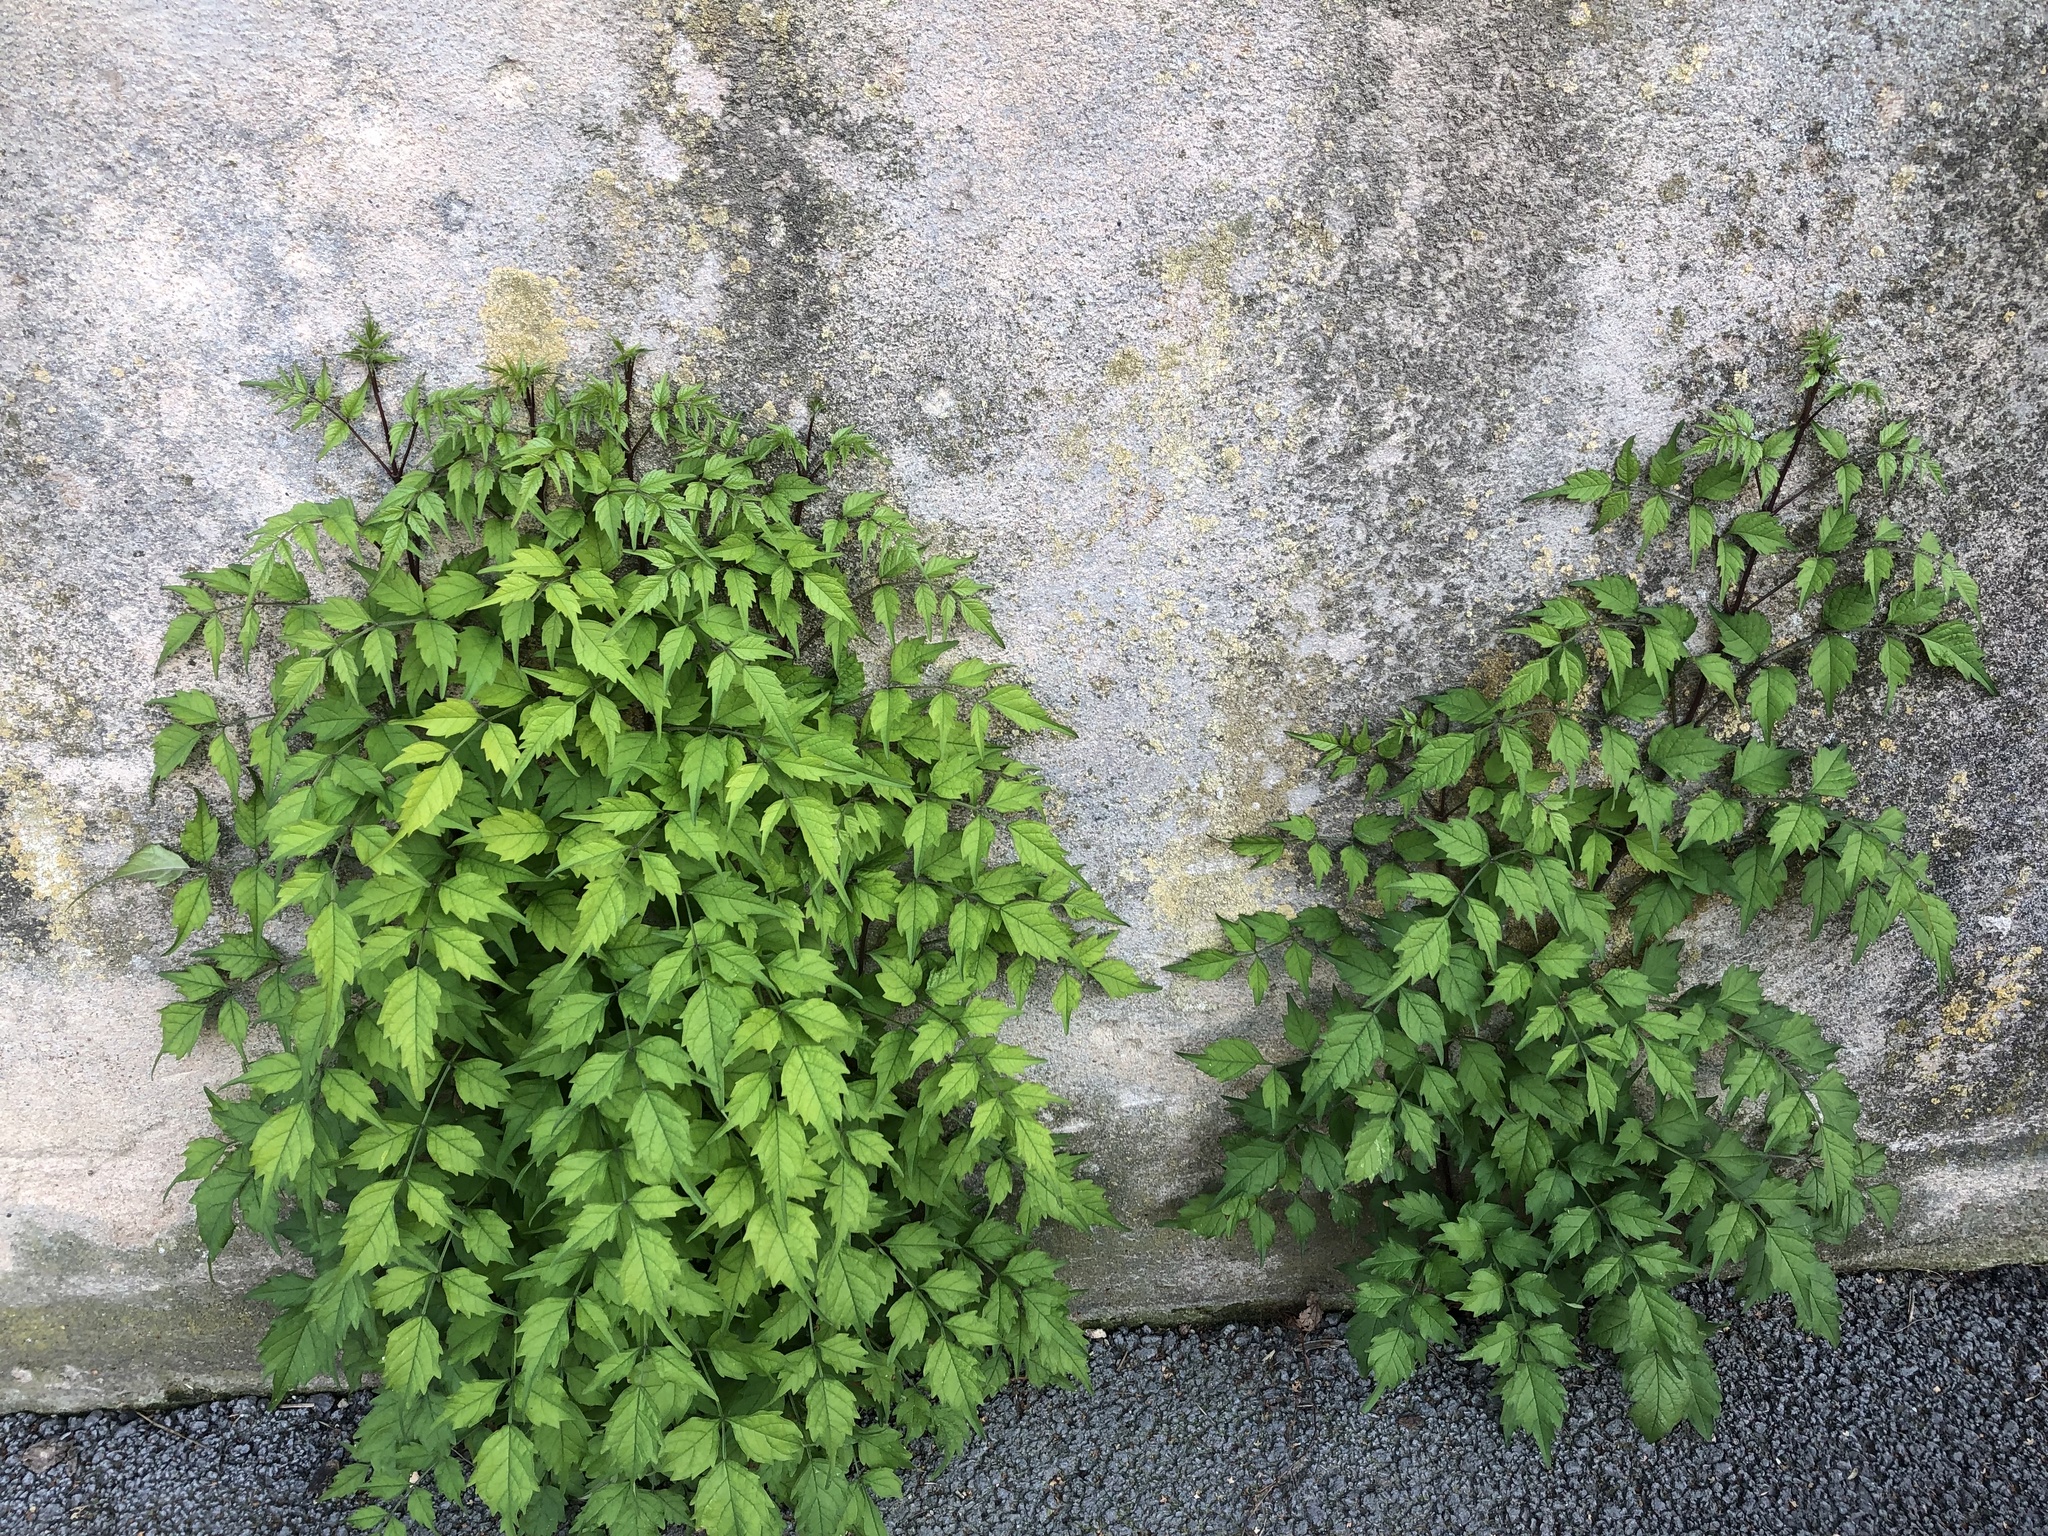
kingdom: Plantae
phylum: Tracheophyta
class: Magnoliopsida
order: Lamiales
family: Bignoniaceae
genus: Campsis
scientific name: Campsis radicans
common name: Trumpet-creeper
